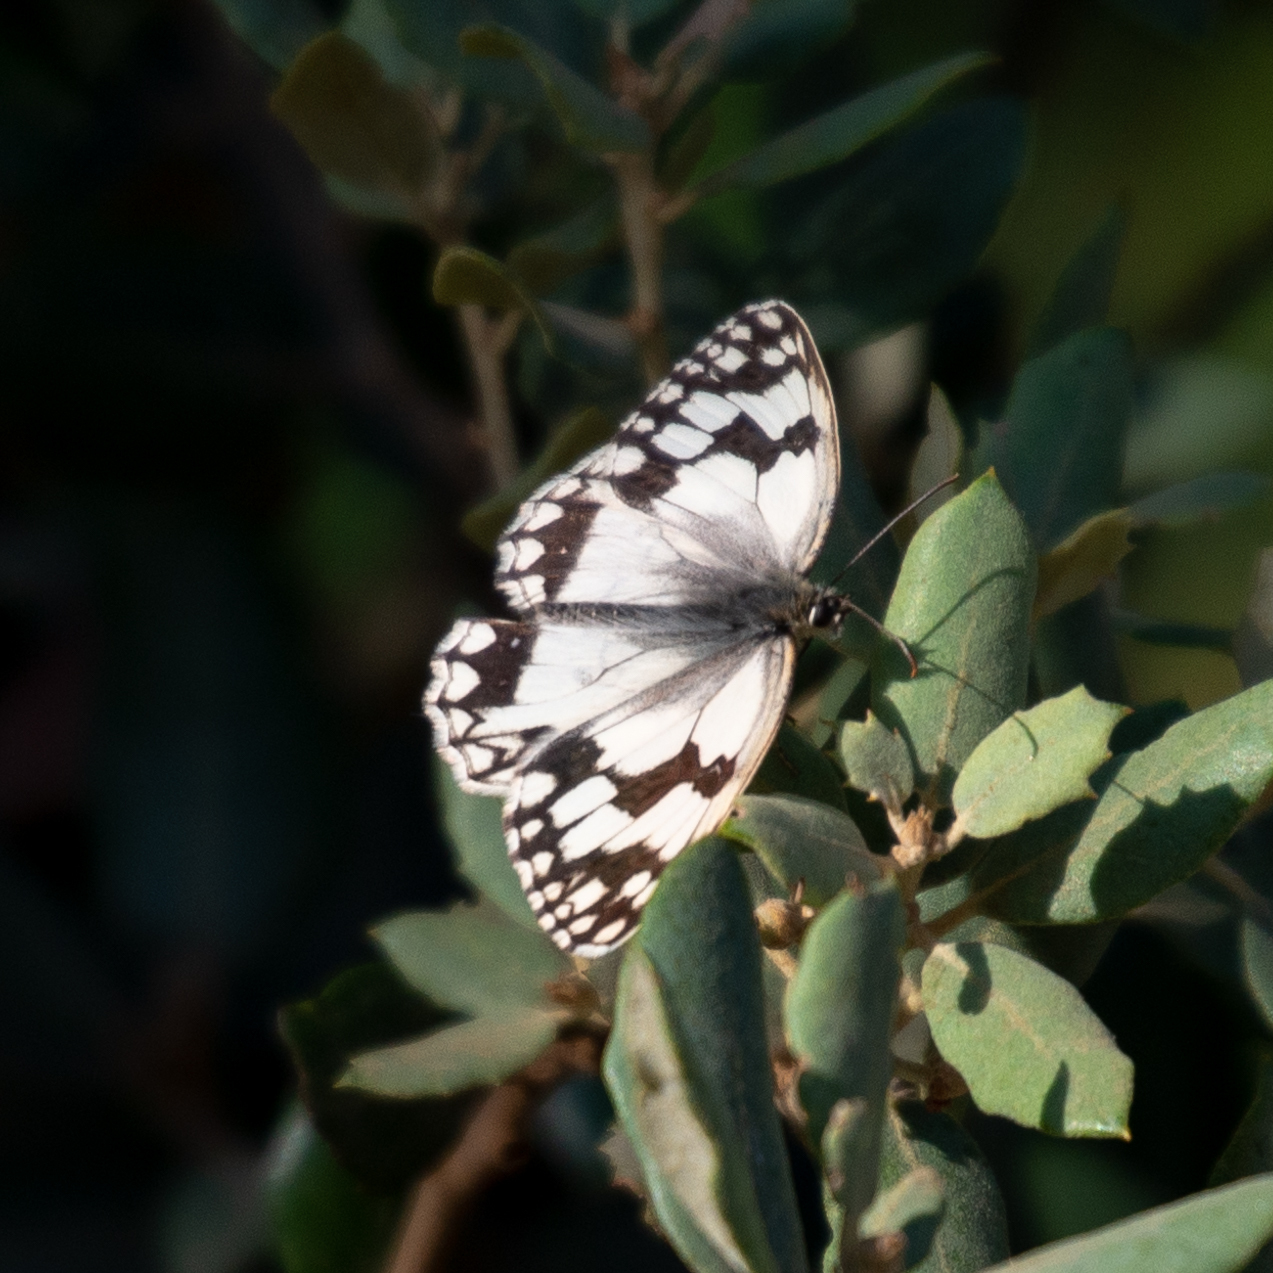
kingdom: Animalia
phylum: Arthropoda
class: Insecta
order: Lepidoptera
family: Nymphalidae
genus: Melanargia
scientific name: Melanargia lachesis
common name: Iberian marbled white
